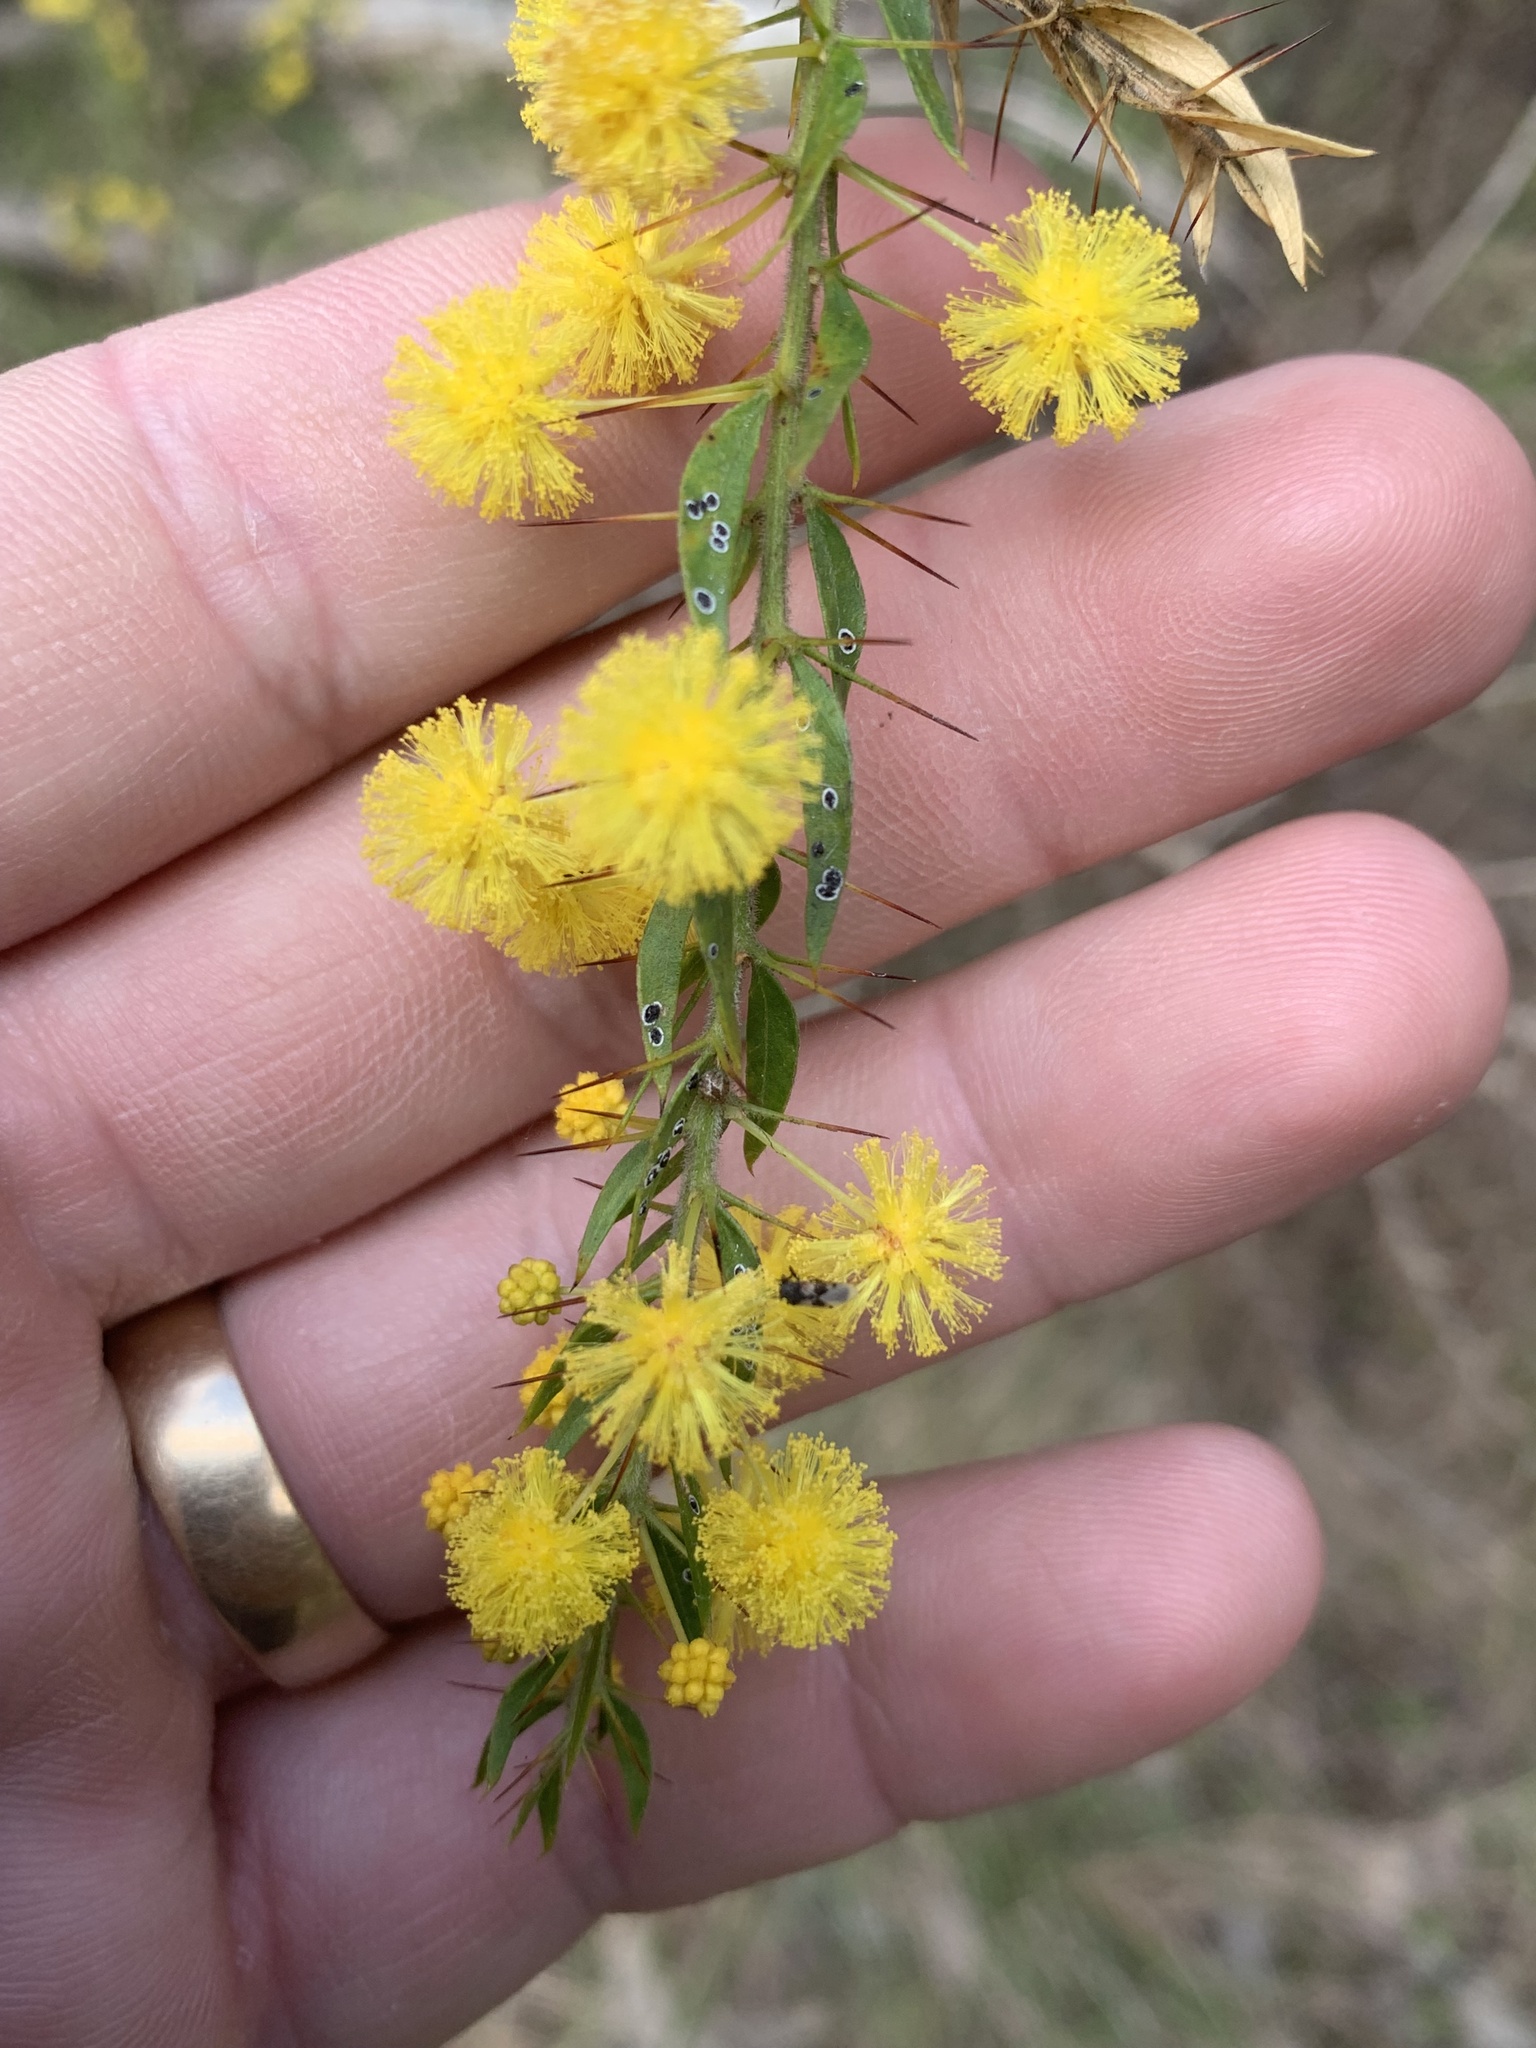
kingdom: Plantae
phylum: Tracheophyta
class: Magnoliopsida
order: Fabales
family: Fabaceae
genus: Acacia
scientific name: Acacia paradoxa
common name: Paradox acacia
